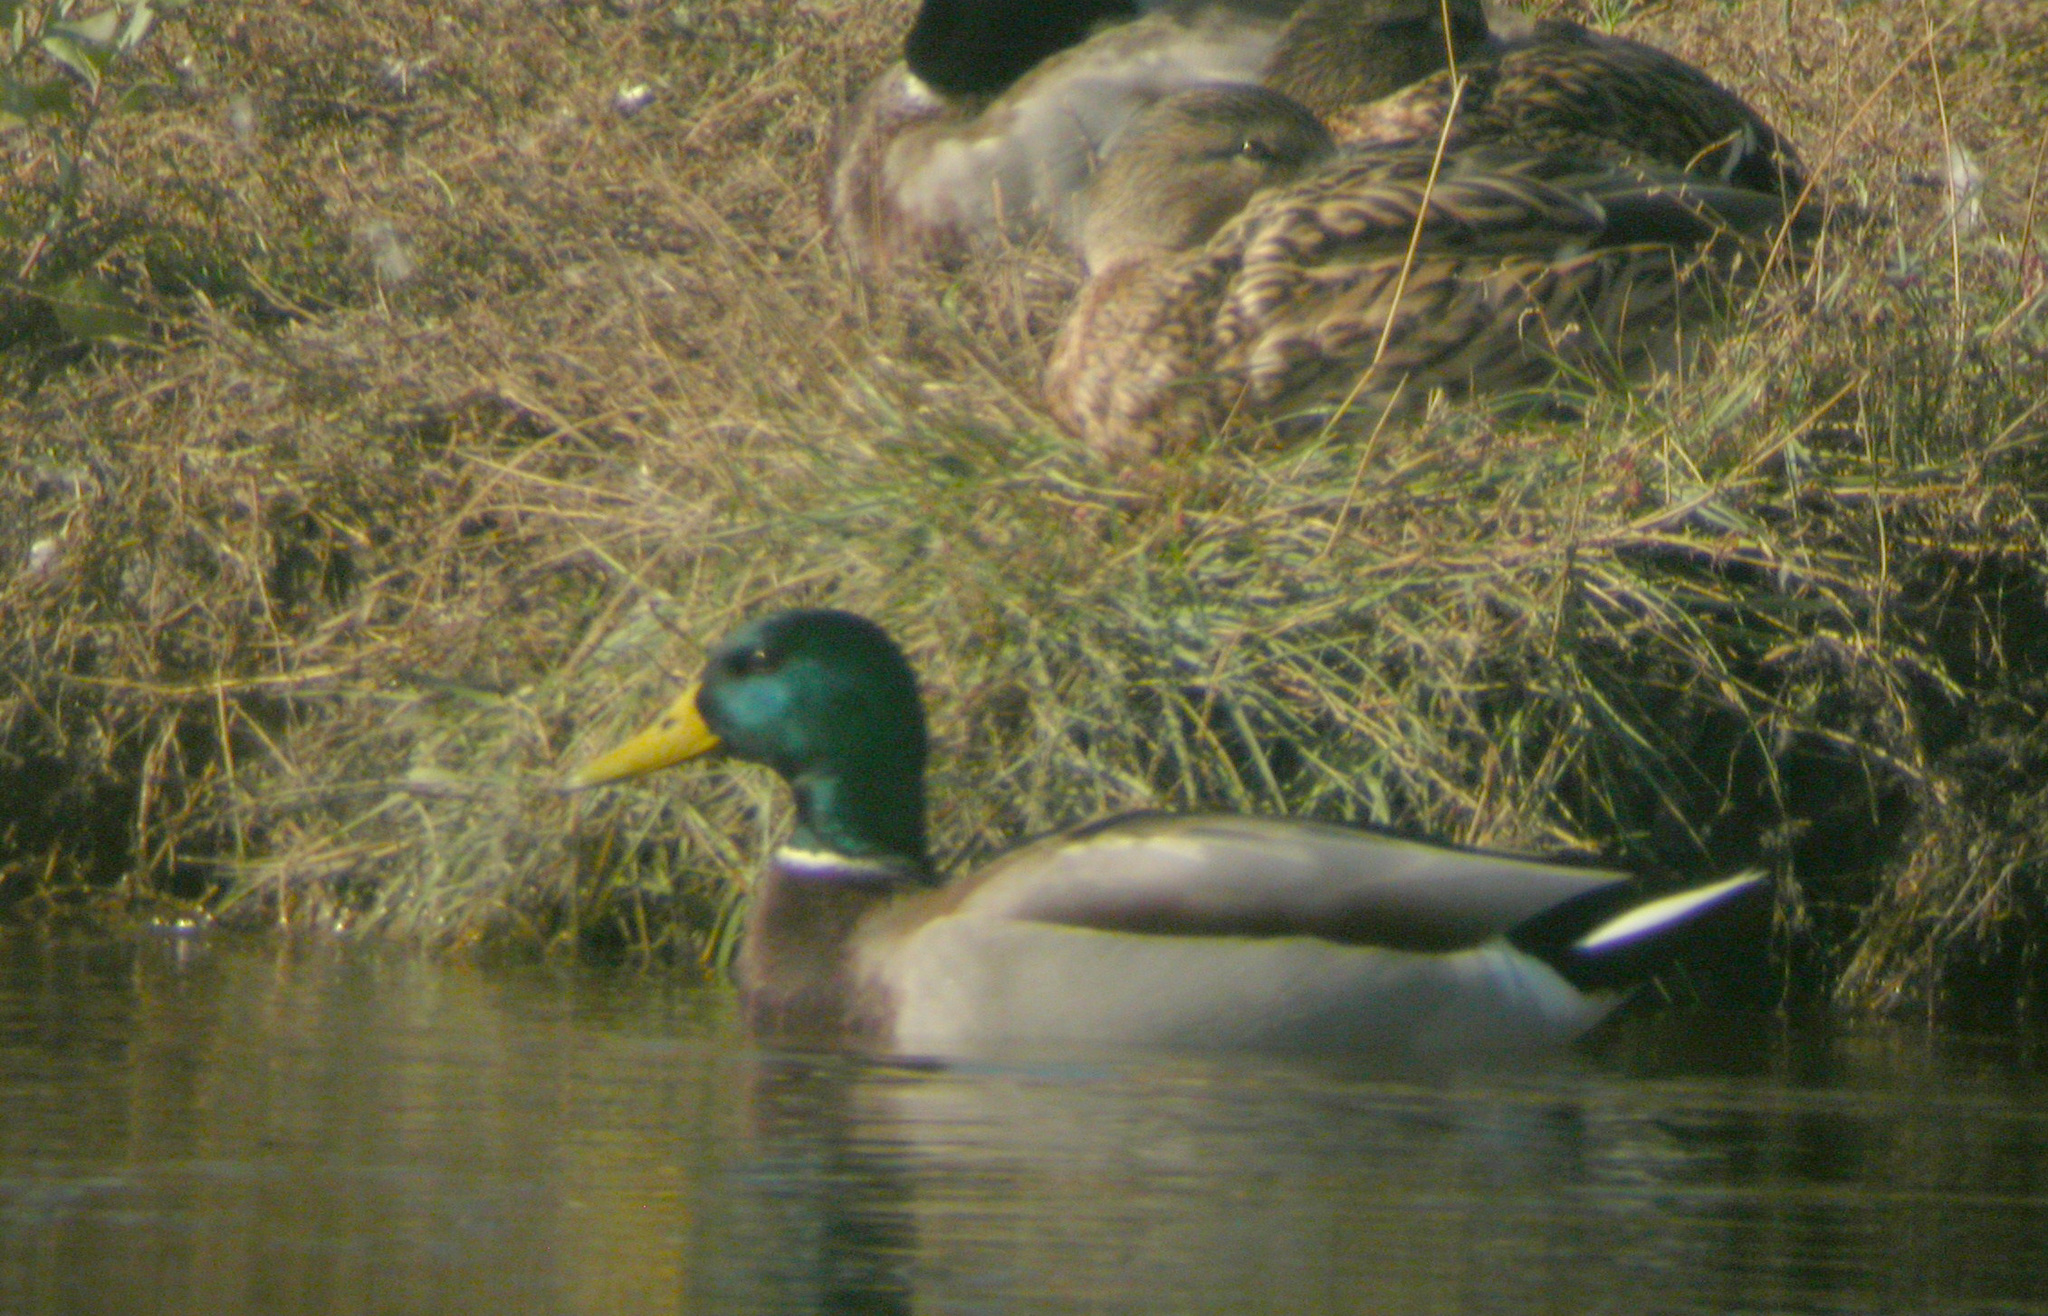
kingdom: Animalia
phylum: Chordata
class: Aves
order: Anseriformes
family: Anatidae
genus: Anas
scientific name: Anas platyrhynchos
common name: Mallard
